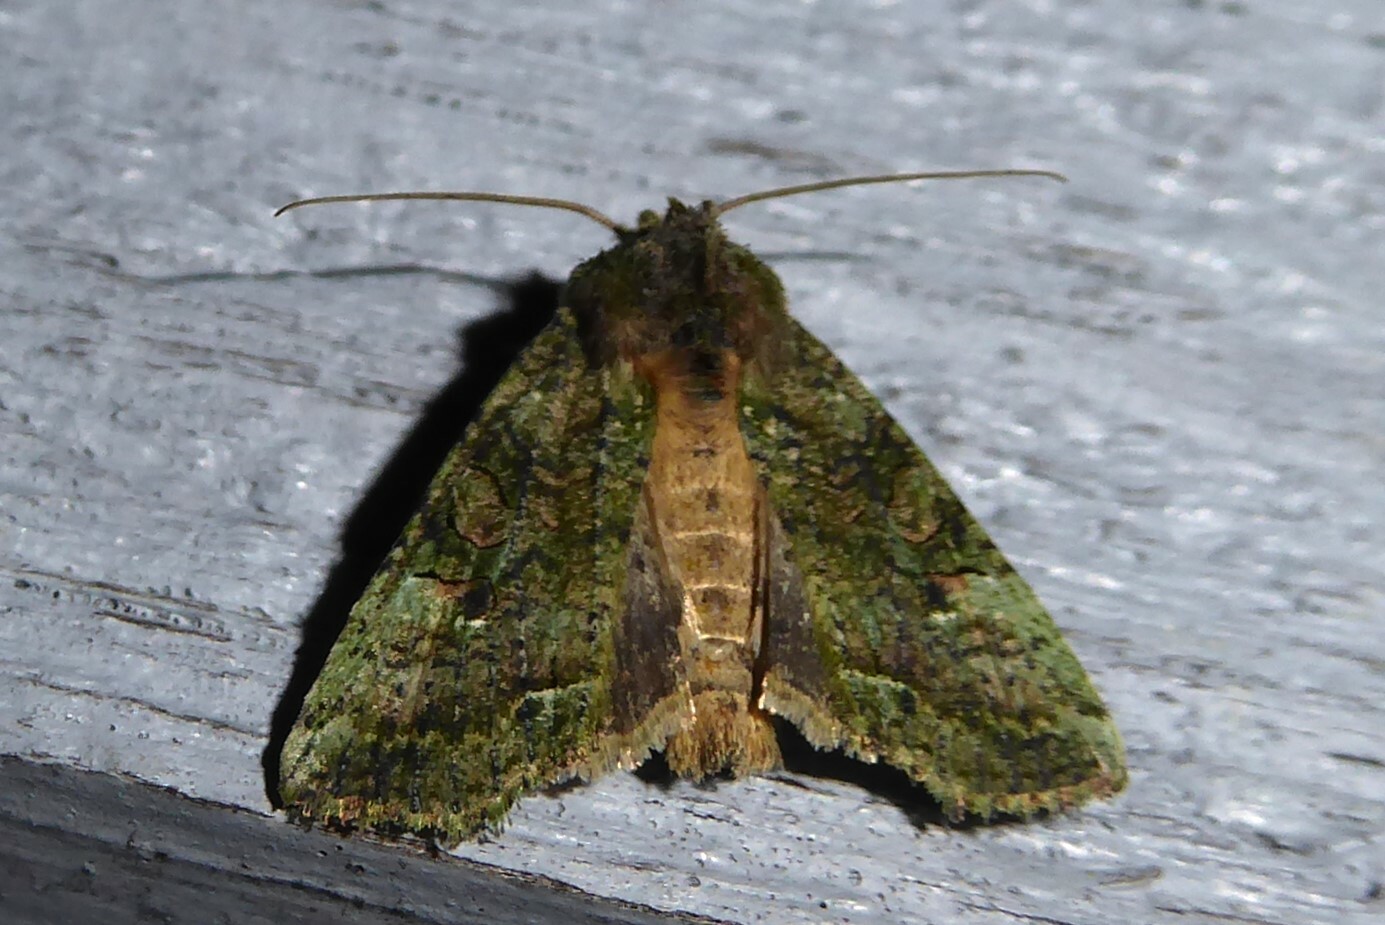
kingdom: Animalia
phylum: Arthropoda
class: Insecta
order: Lepidoptera
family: Noctuidae
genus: Meterana
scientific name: Meterana levis
